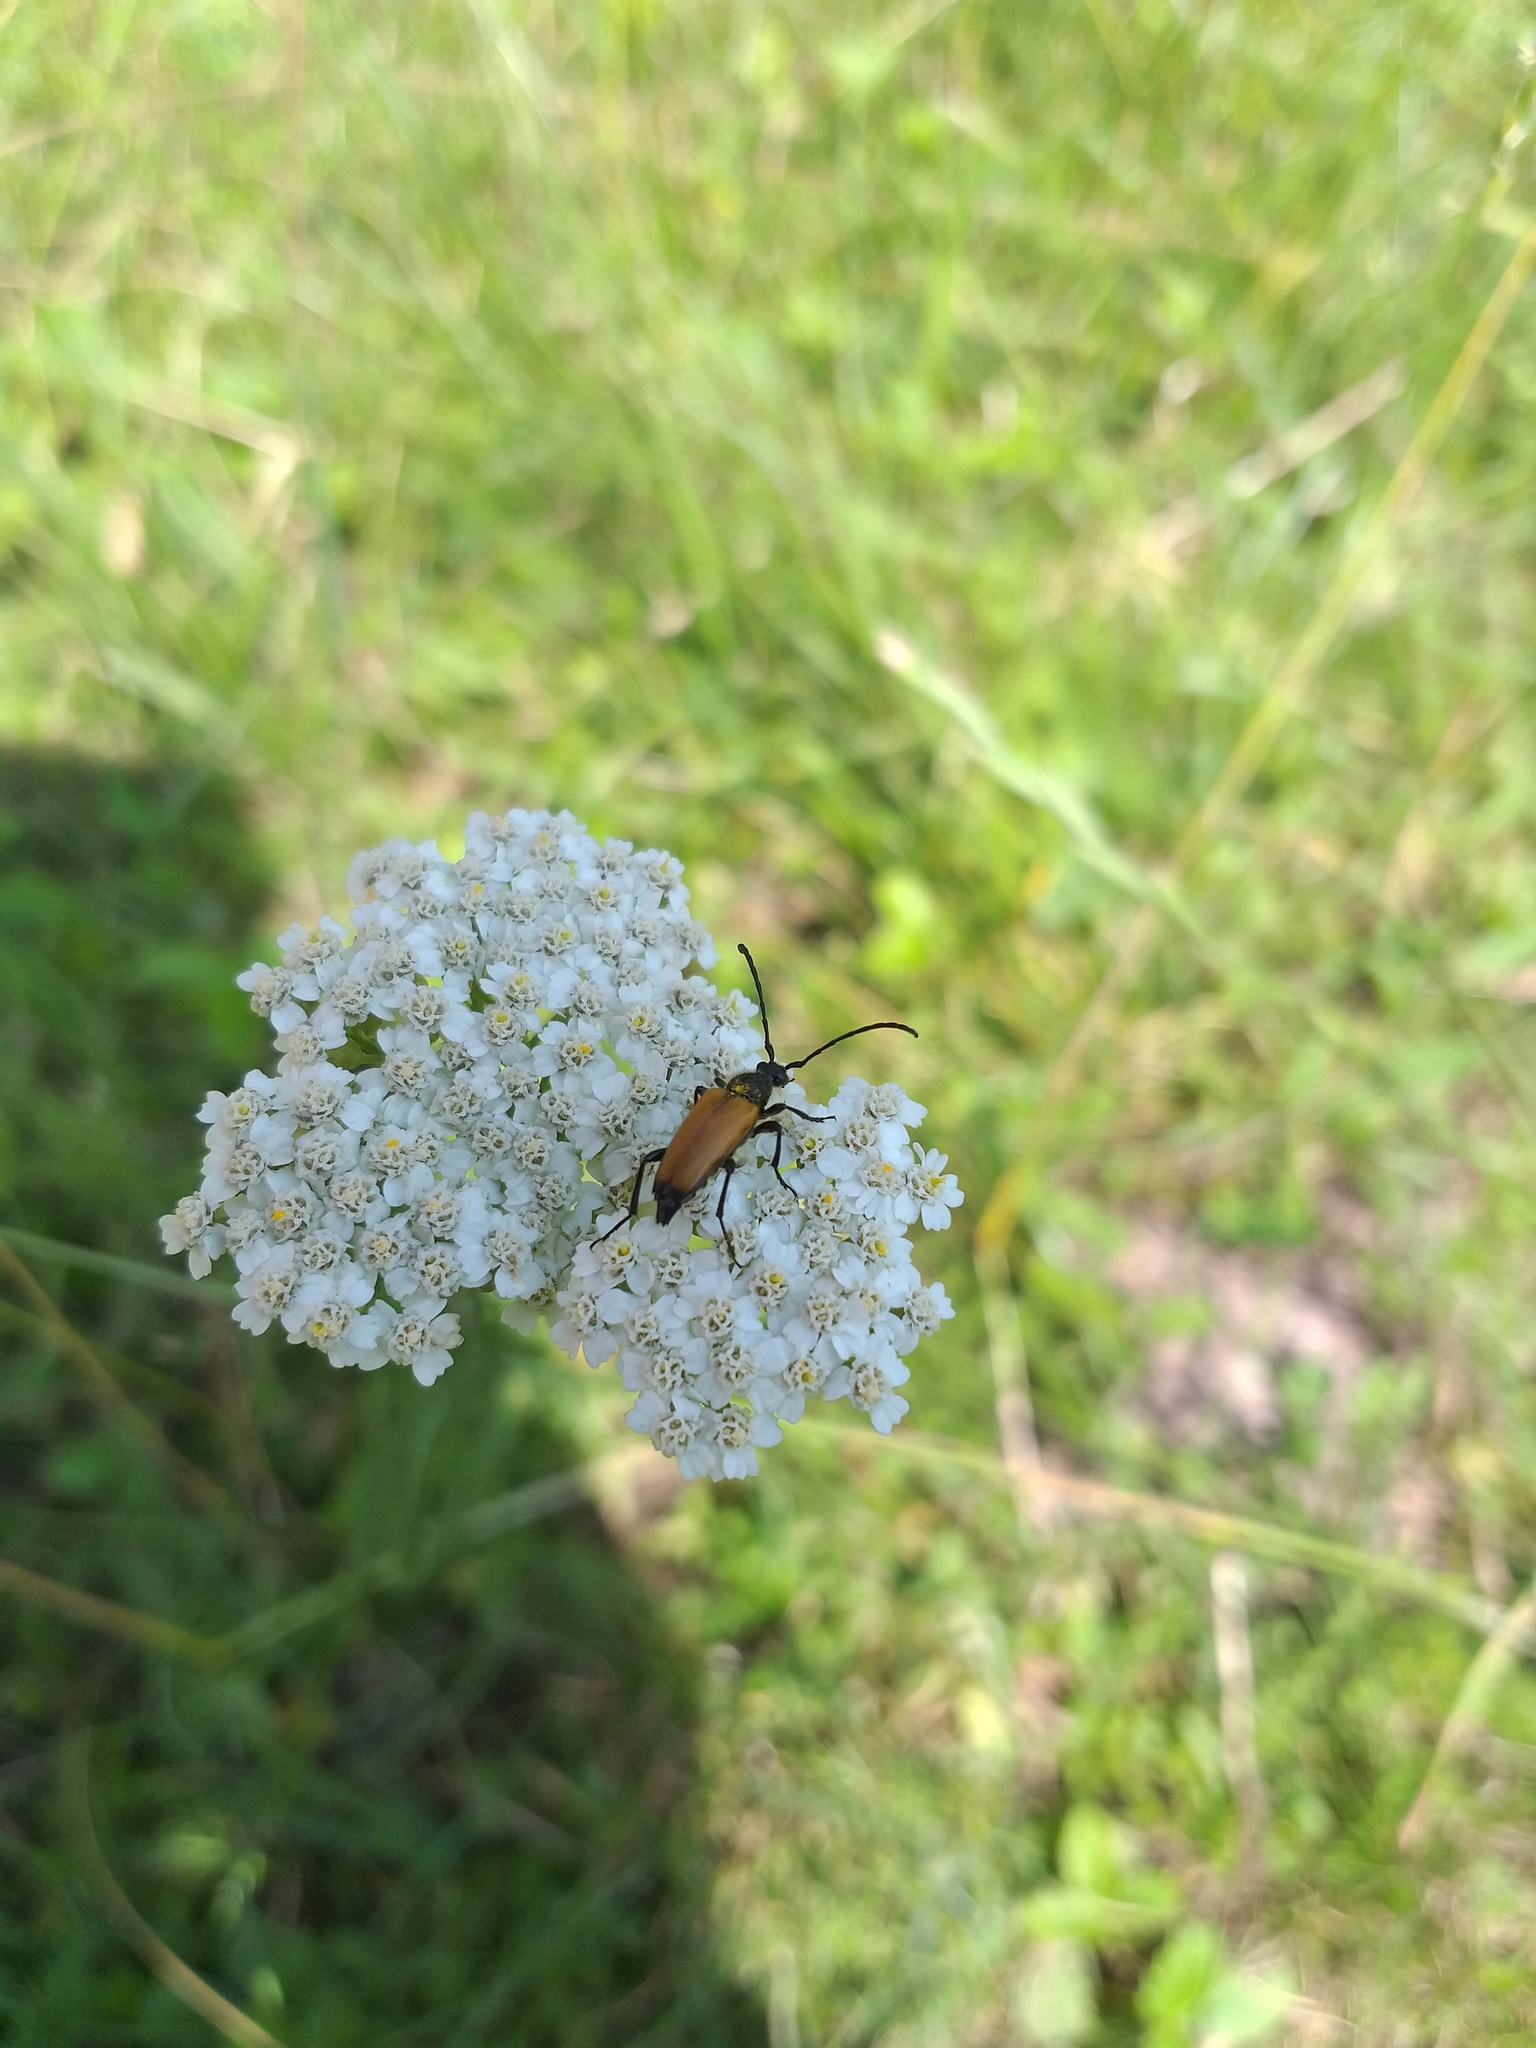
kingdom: Animalia
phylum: Arthropoda
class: Insecta
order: Coleoptera
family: Cerambycidae
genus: Paracorymbia
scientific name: Paracorymbia fulva
